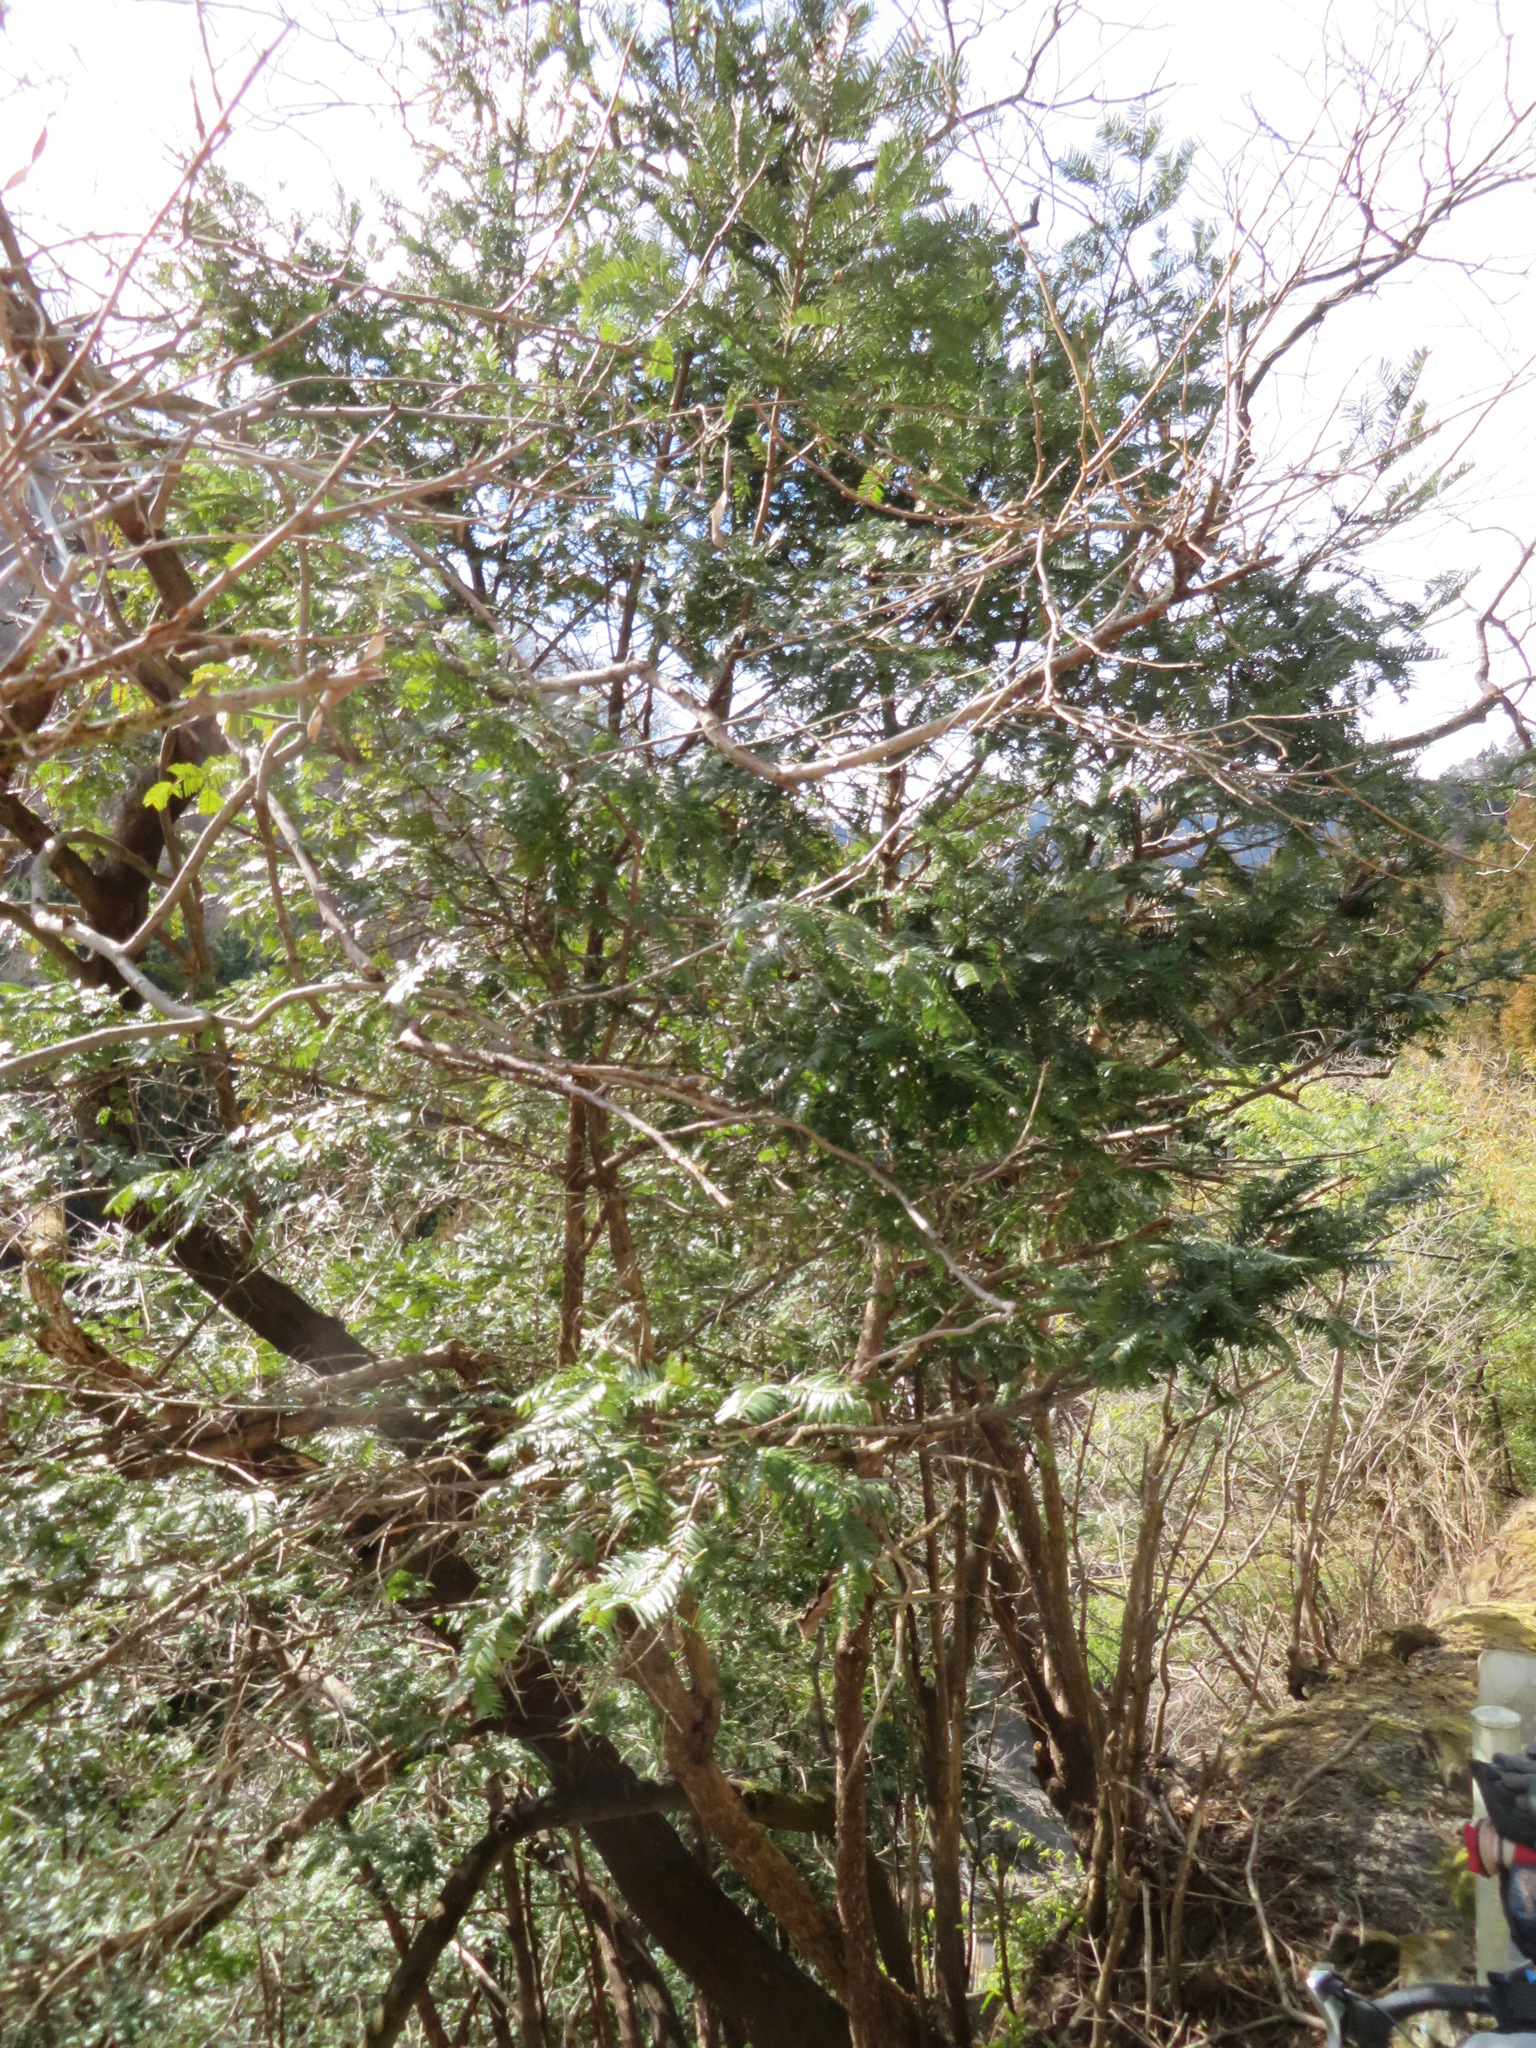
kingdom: Plantae
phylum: Tracheophyta
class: Pinopsida
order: Pinales
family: Cephalotaxaceae
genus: Cephalotaxus
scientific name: Cephalotaxus harringtonia
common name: Japanese plum-yew
